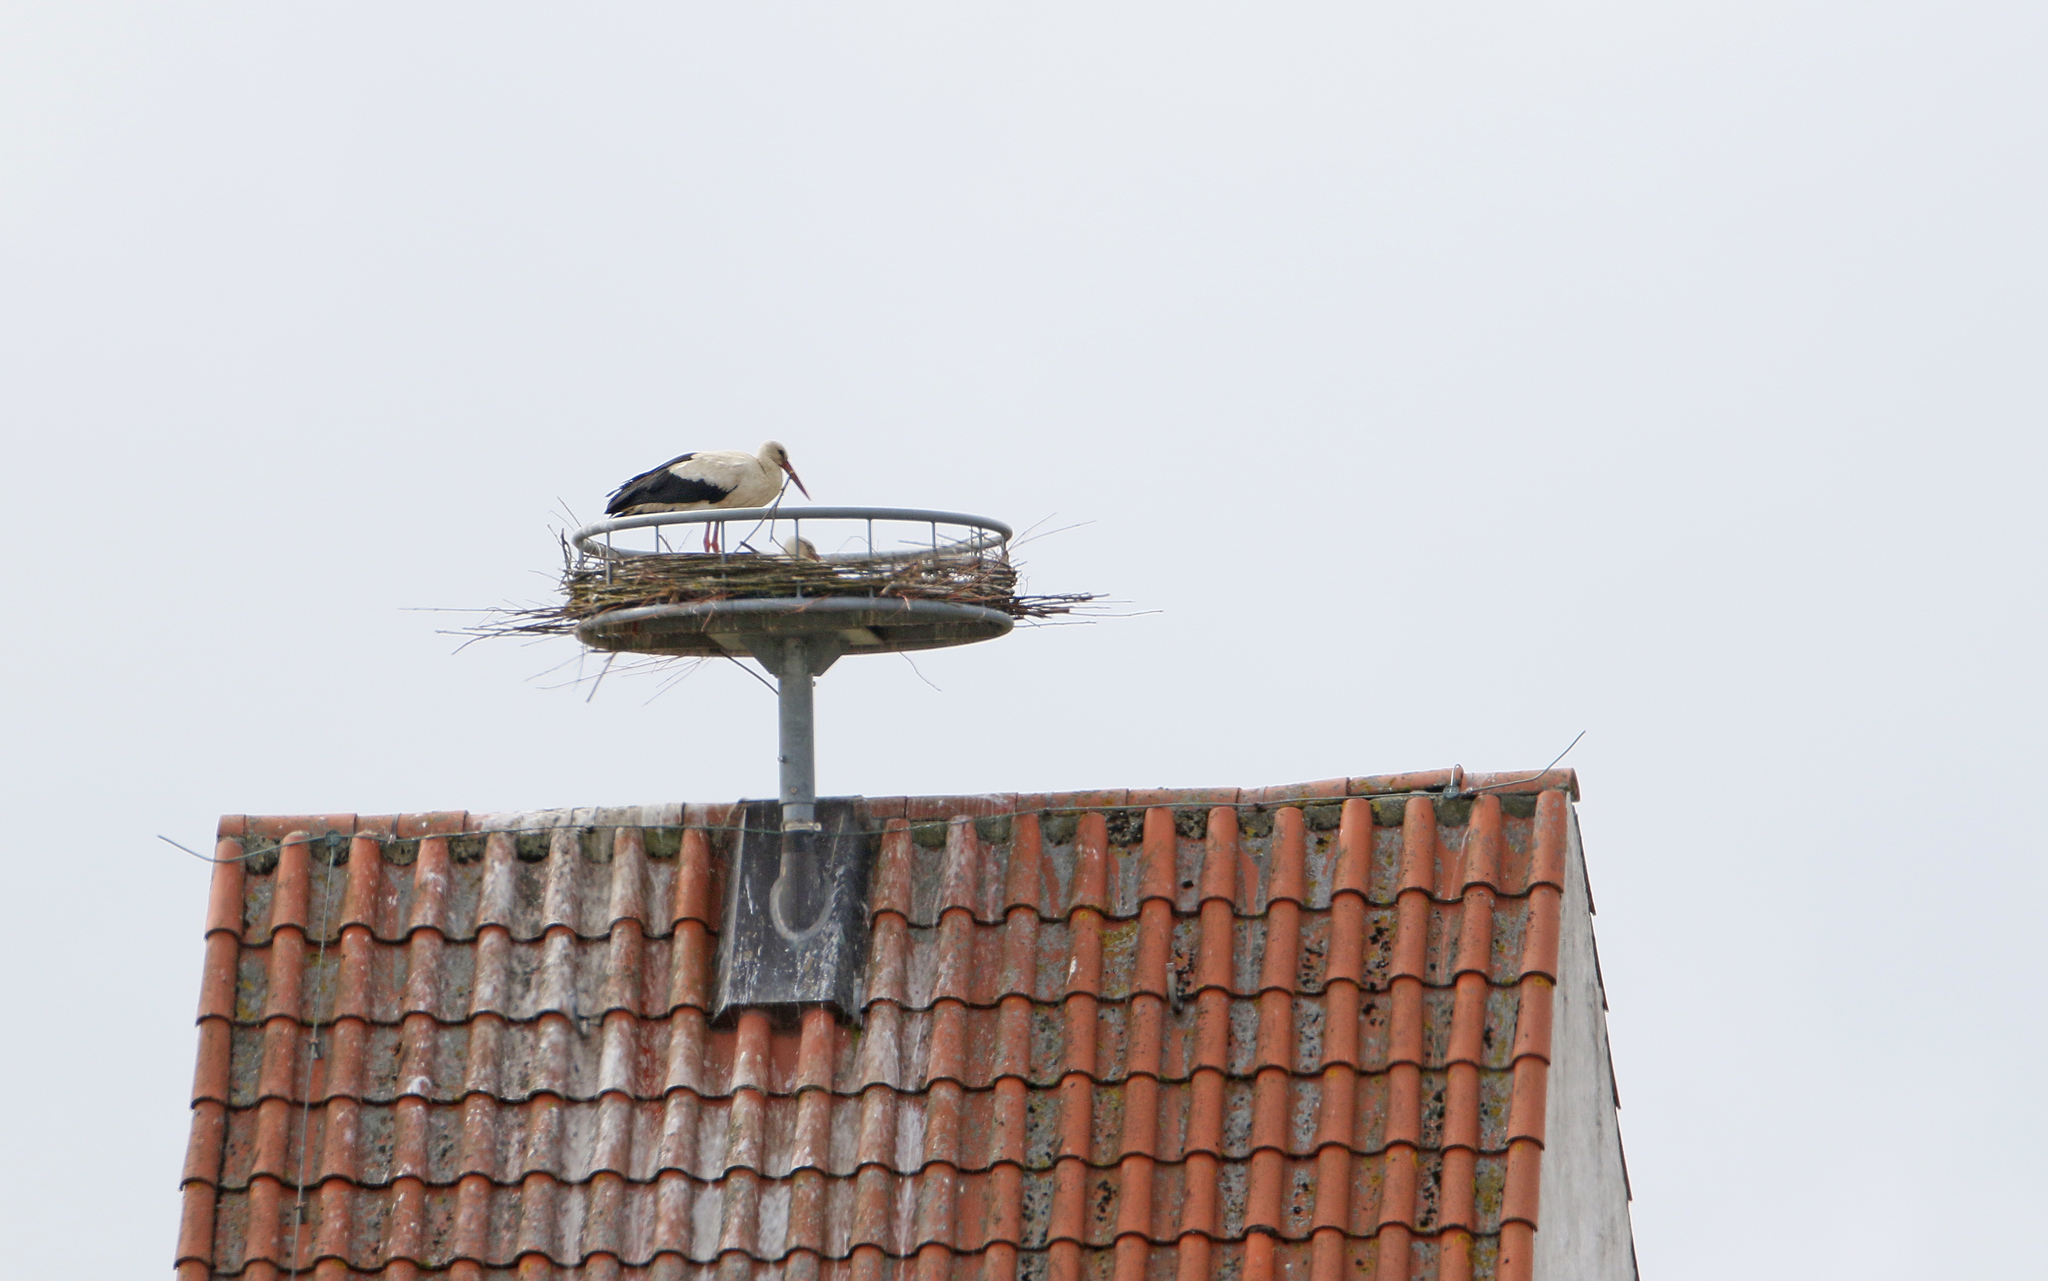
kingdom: Animalia
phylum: Chordata
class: Aves
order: Ciconiiformes
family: Ciconiidae
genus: Ciconia
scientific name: Ciconia ciconia
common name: White stork
